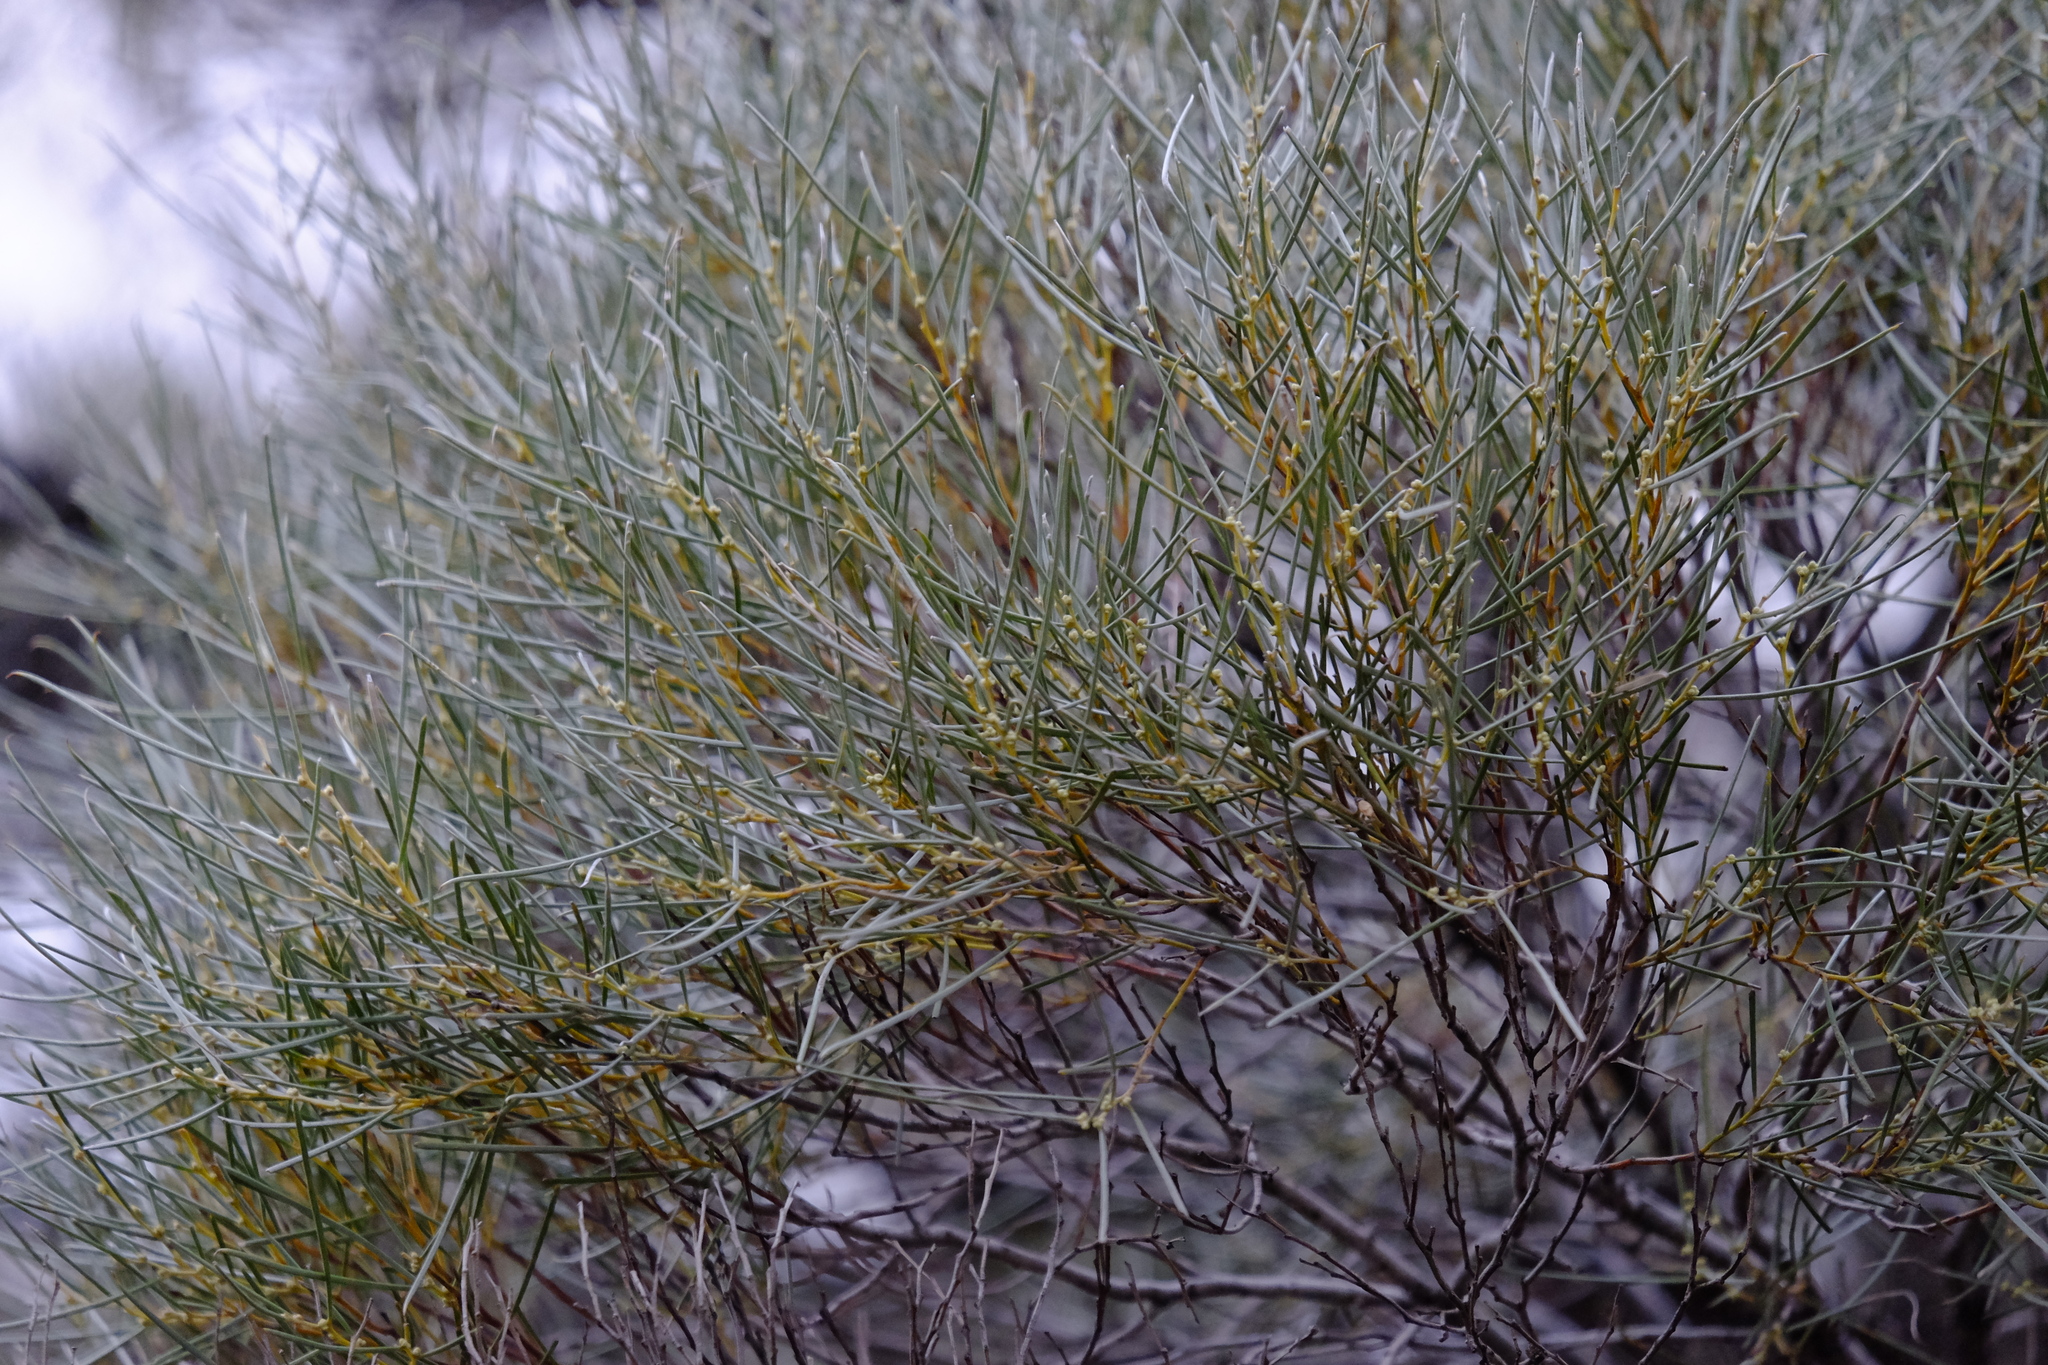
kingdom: Plantae
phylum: Tracheophyta
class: Magnoliopsida
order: Fabales
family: Fabaceae
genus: Acacia
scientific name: Acacia papyrocarpa
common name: Western myall
